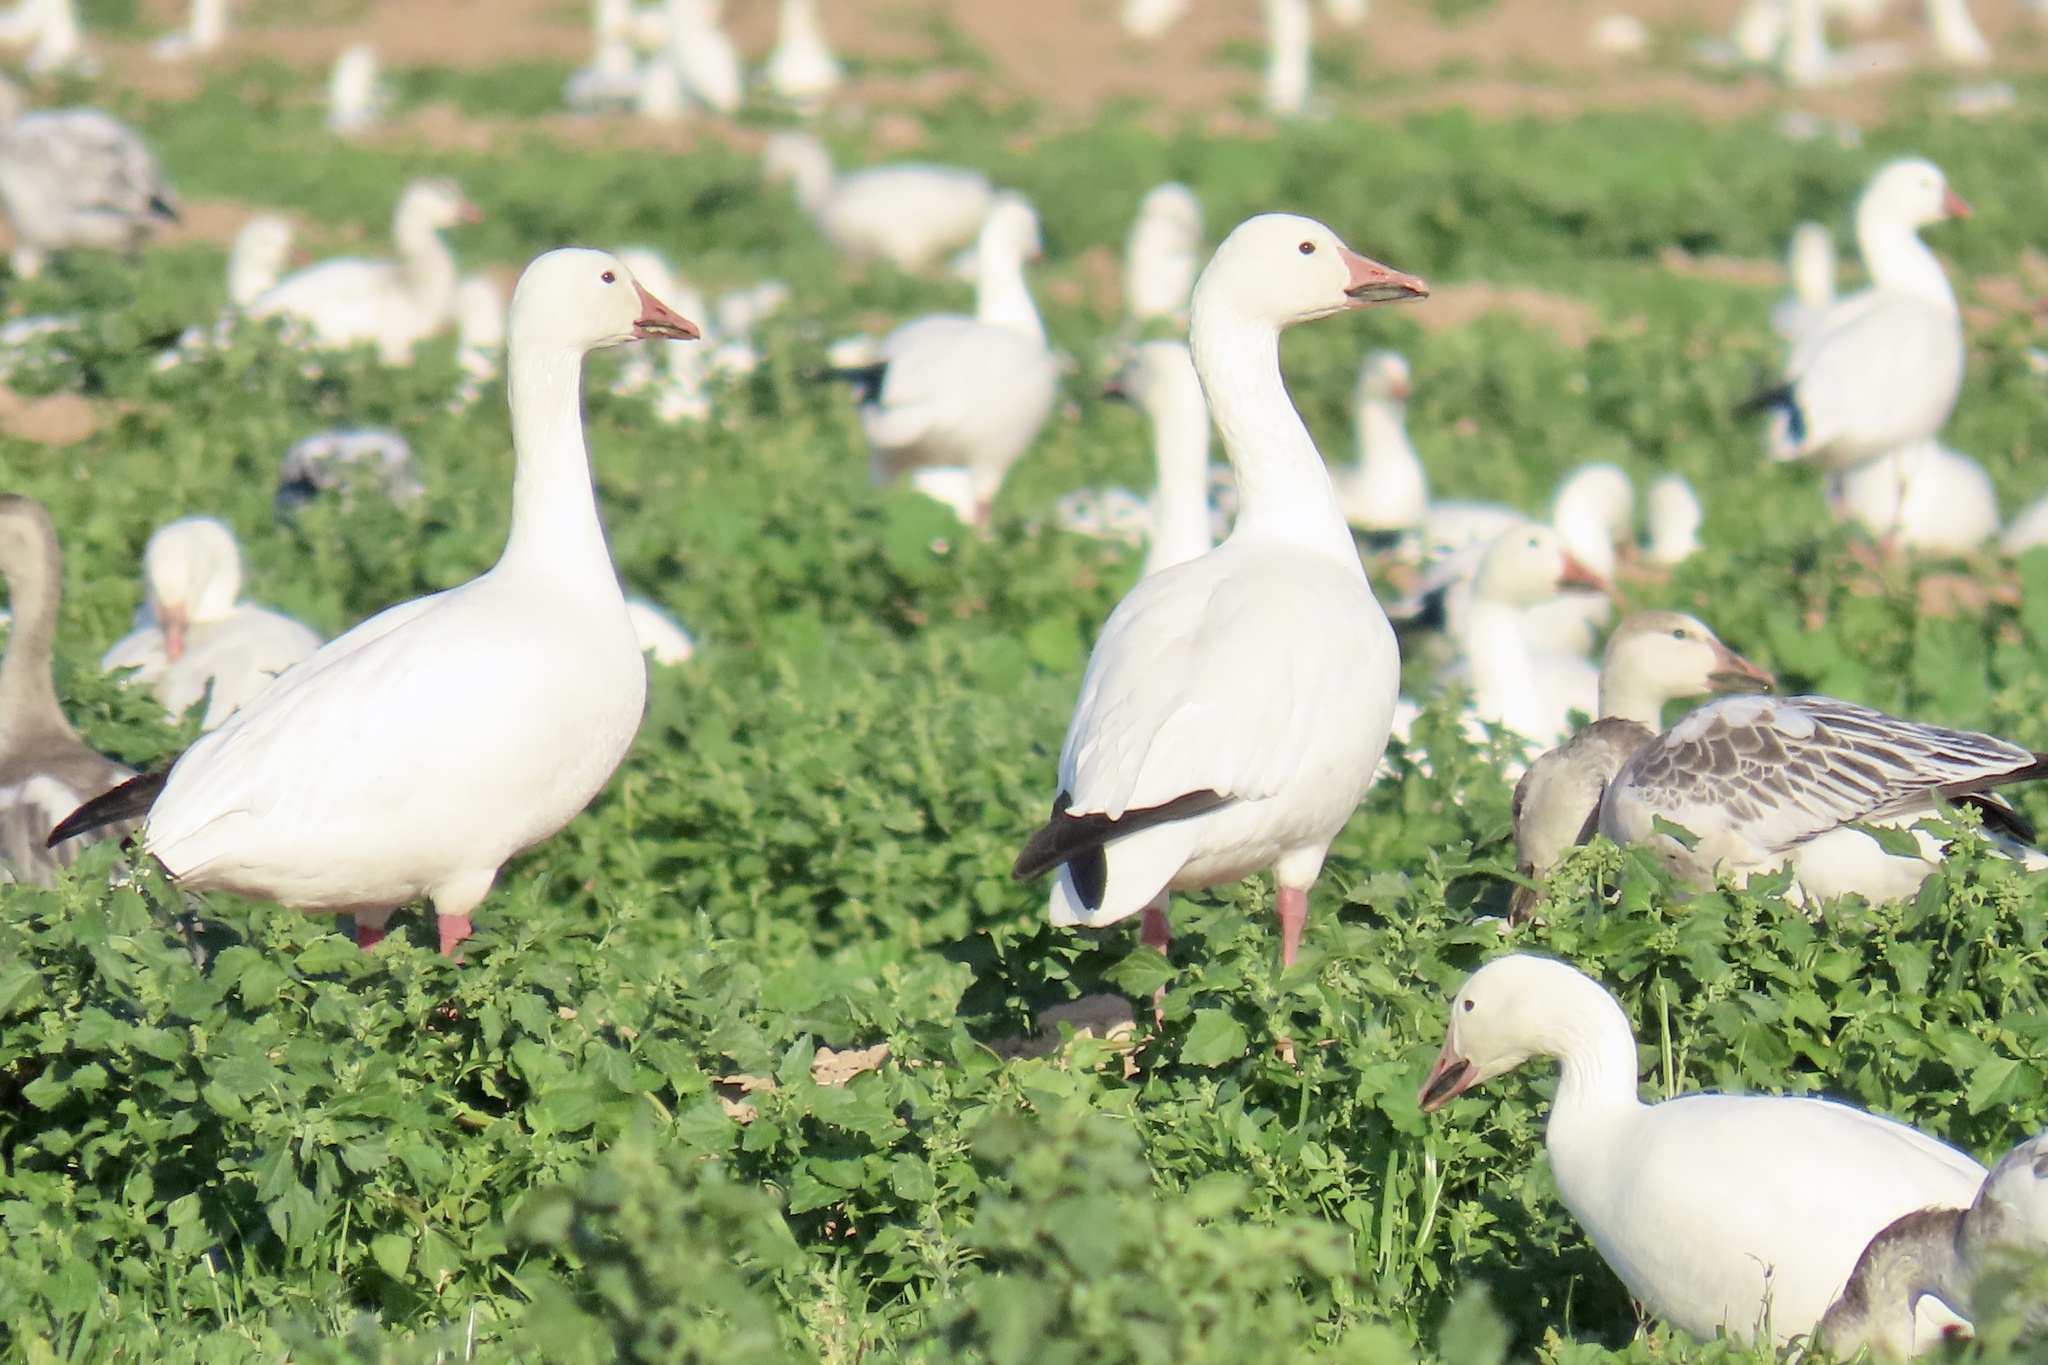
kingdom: Animalia
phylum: Chordata
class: Aves
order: Anseriformes
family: Anatidae
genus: Anser
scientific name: Anser caerulescens
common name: Snow goose
